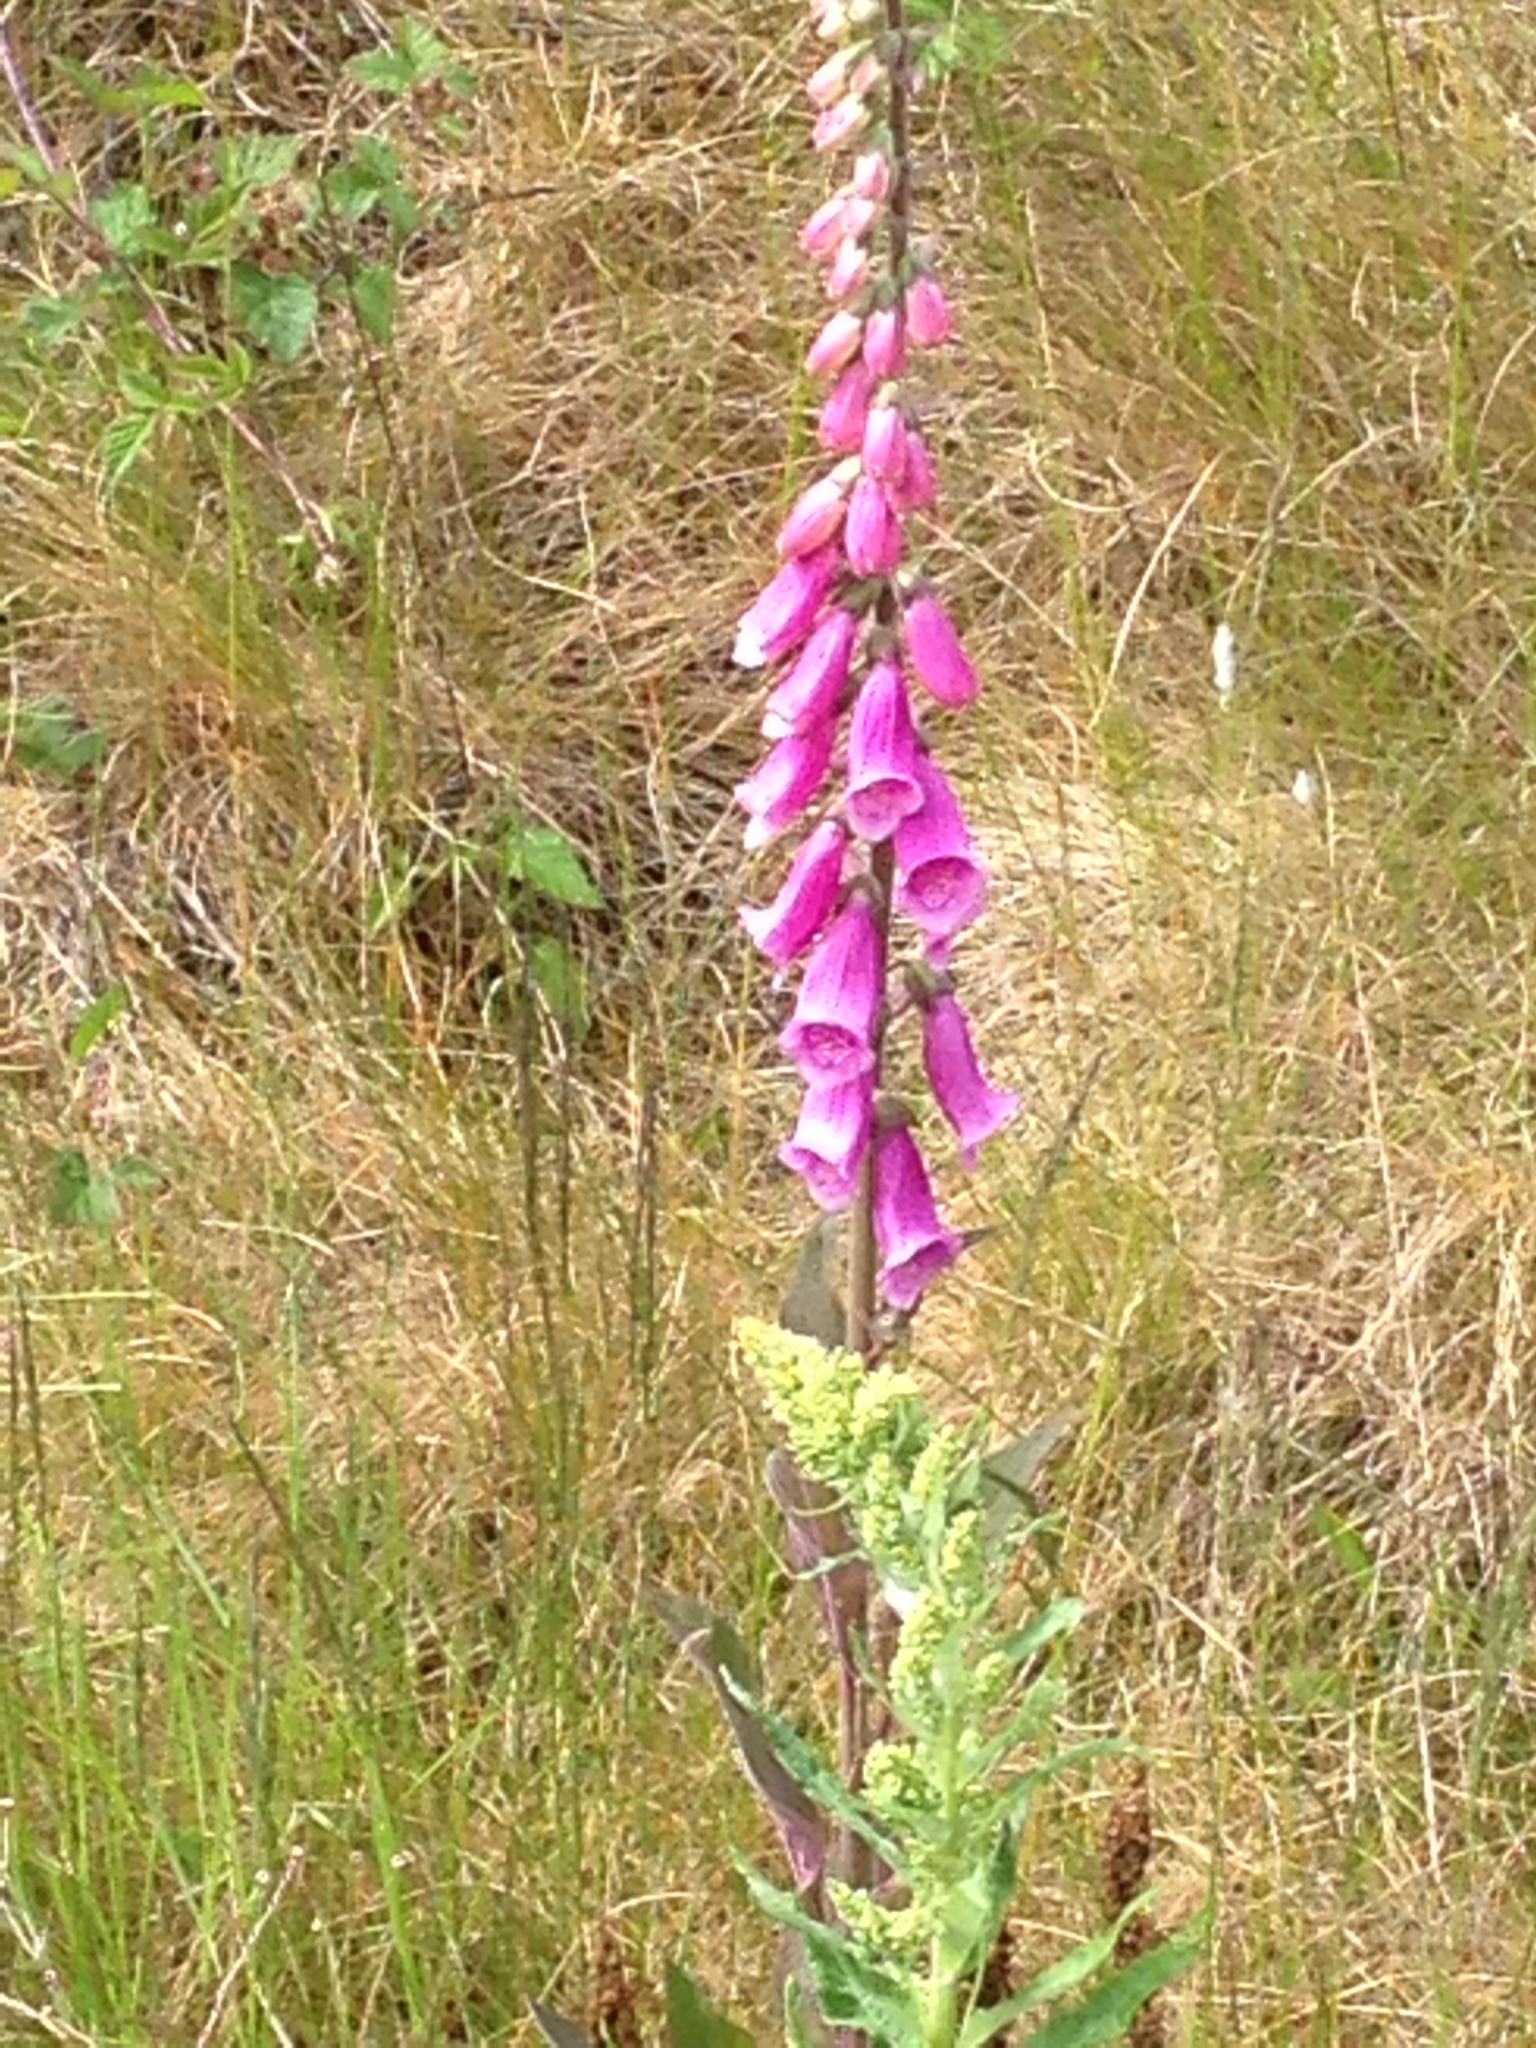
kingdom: Plantae
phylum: Tracheophyta
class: Magnoliopsida
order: Lamiales
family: Plantaginaceae
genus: Digitalis
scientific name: Digitalis purpurea
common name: Foxglove
